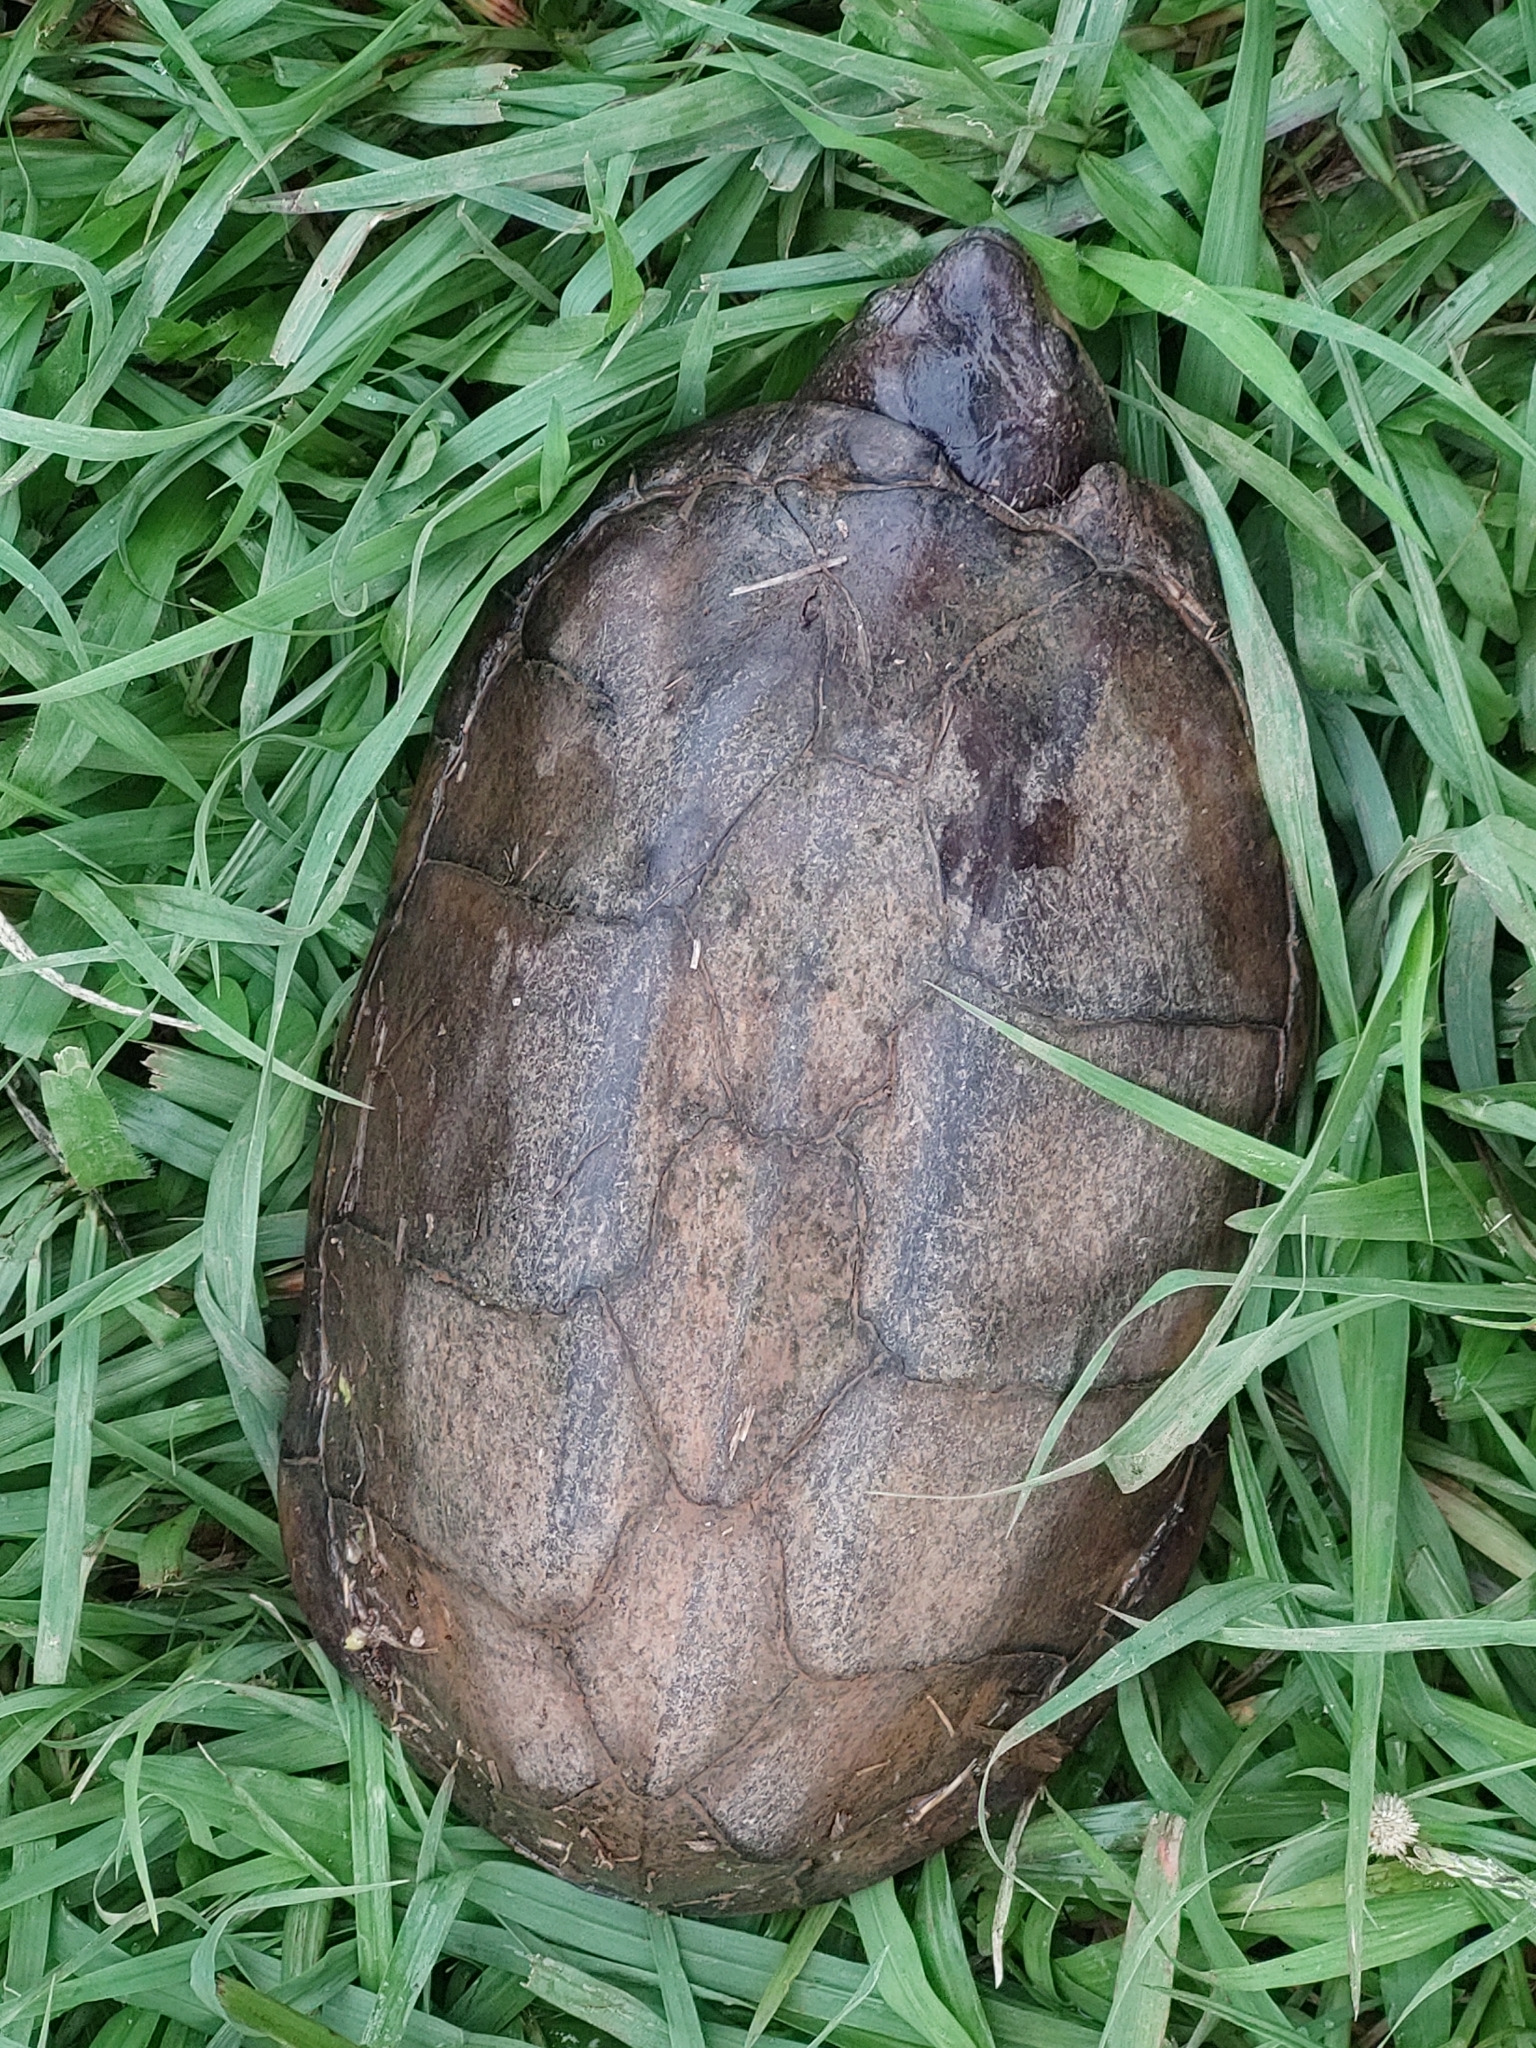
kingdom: Animalia
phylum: Chordata
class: Testudines
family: Kinosternidae
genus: Kinosternon
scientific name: Kinosternon scorpioides
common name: Scorpion mud turtle
